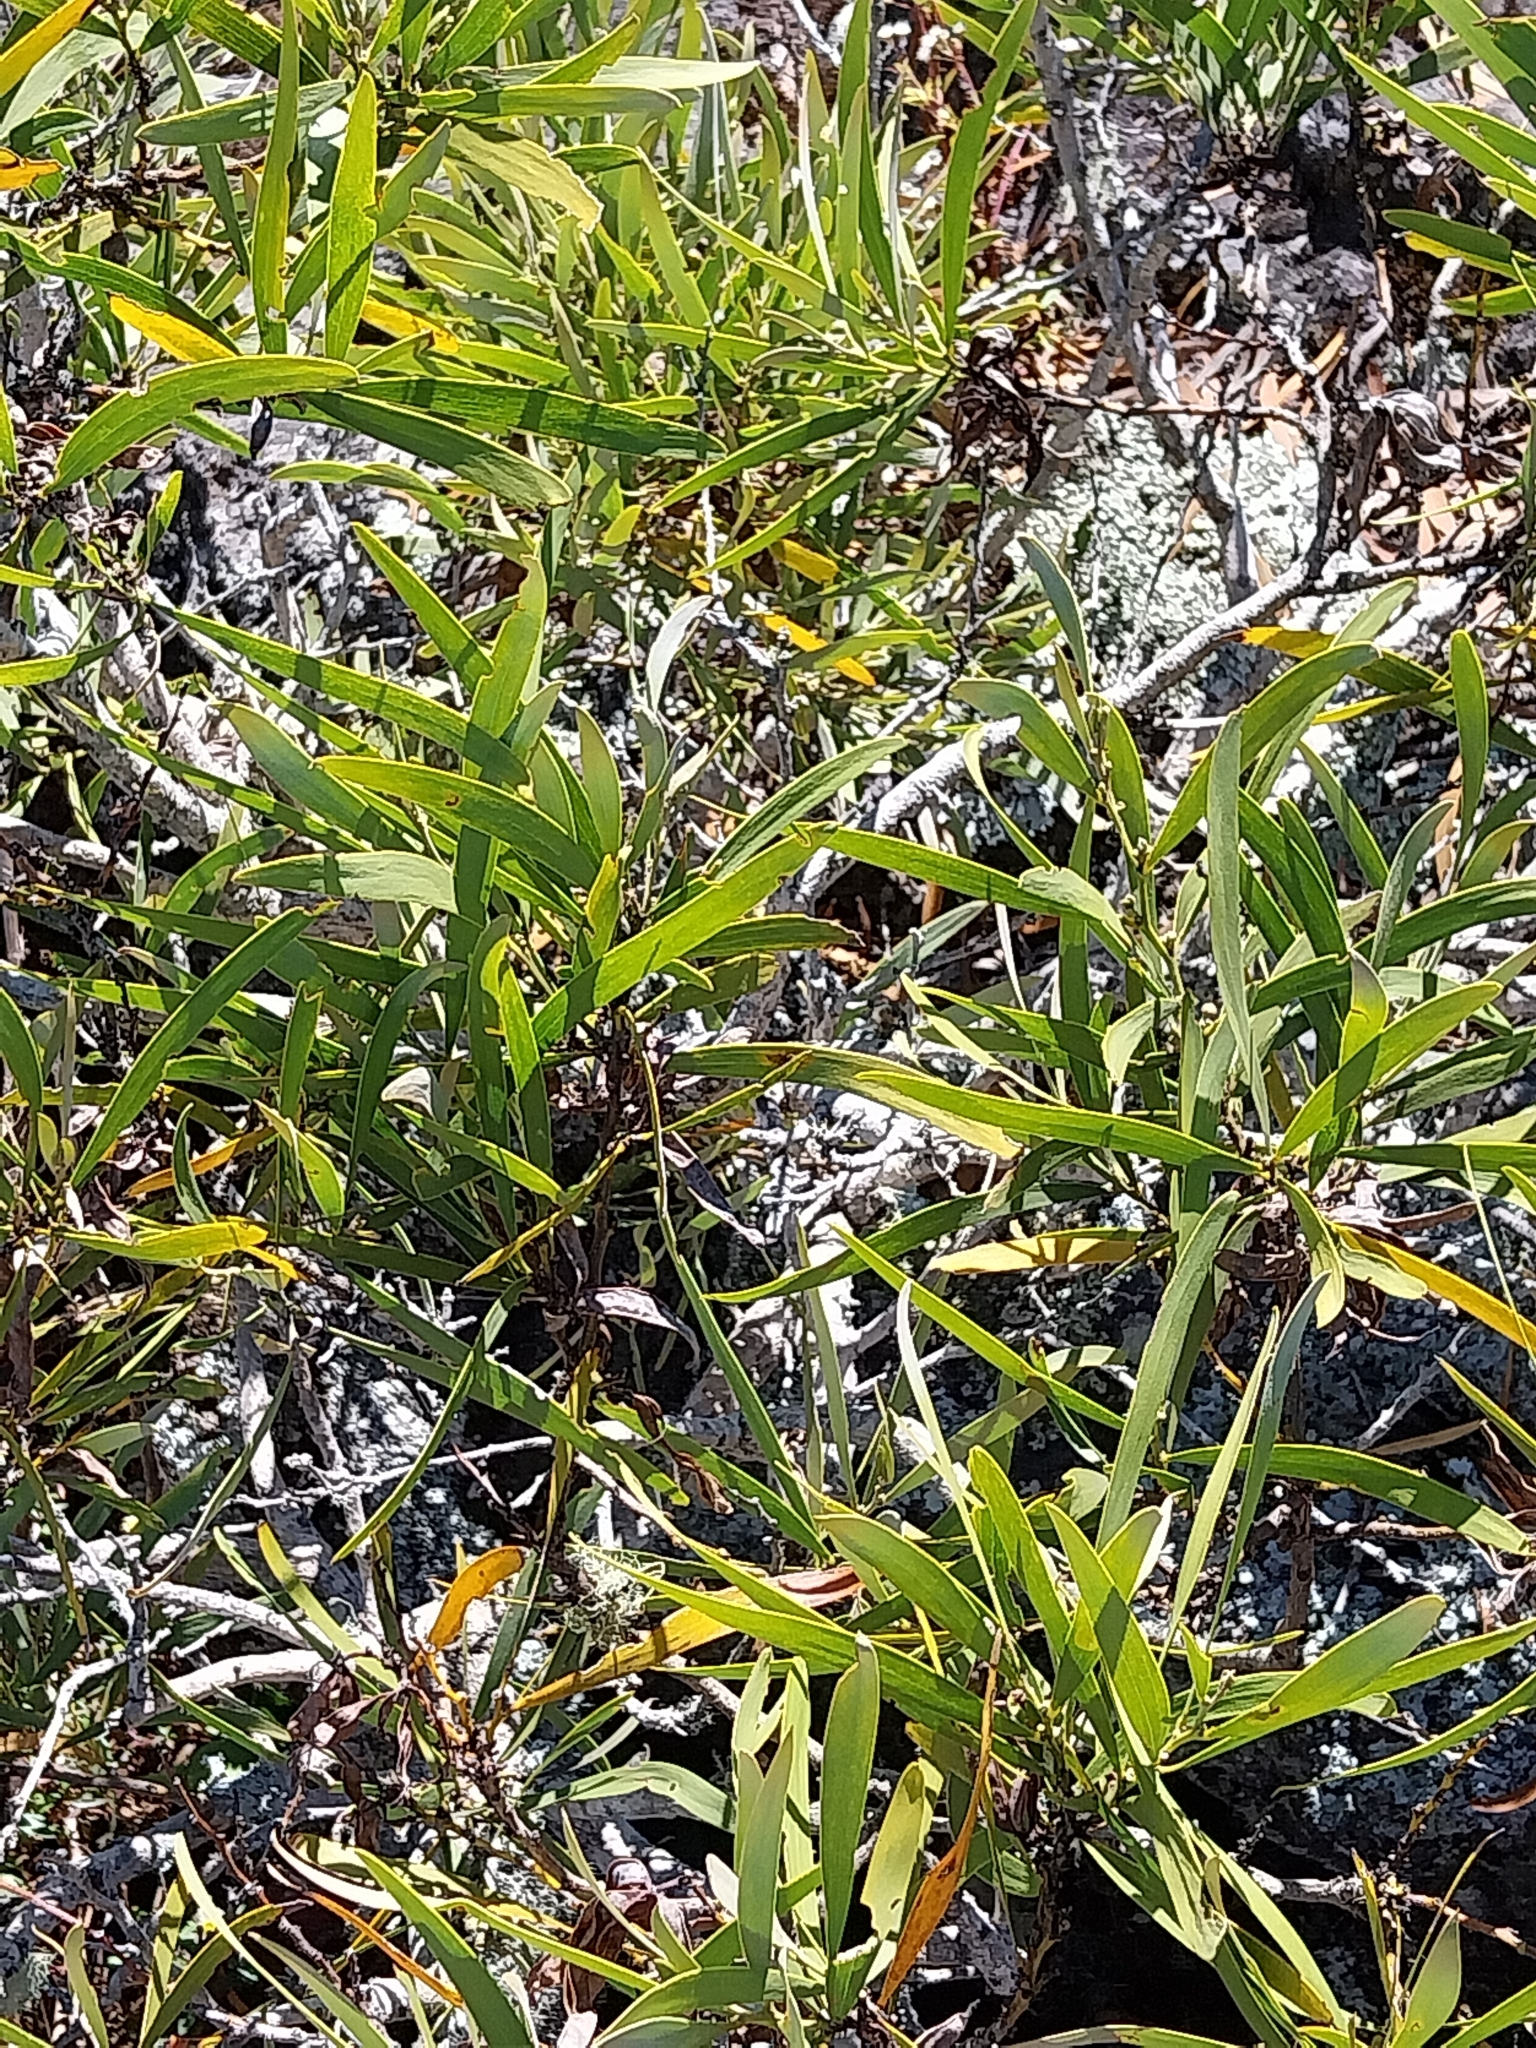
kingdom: Plantae
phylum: Tracheophyta
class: Magnoliopsida
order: Fabales
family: Fabaceae
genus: Acacia
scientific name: Acacia heterophylla
